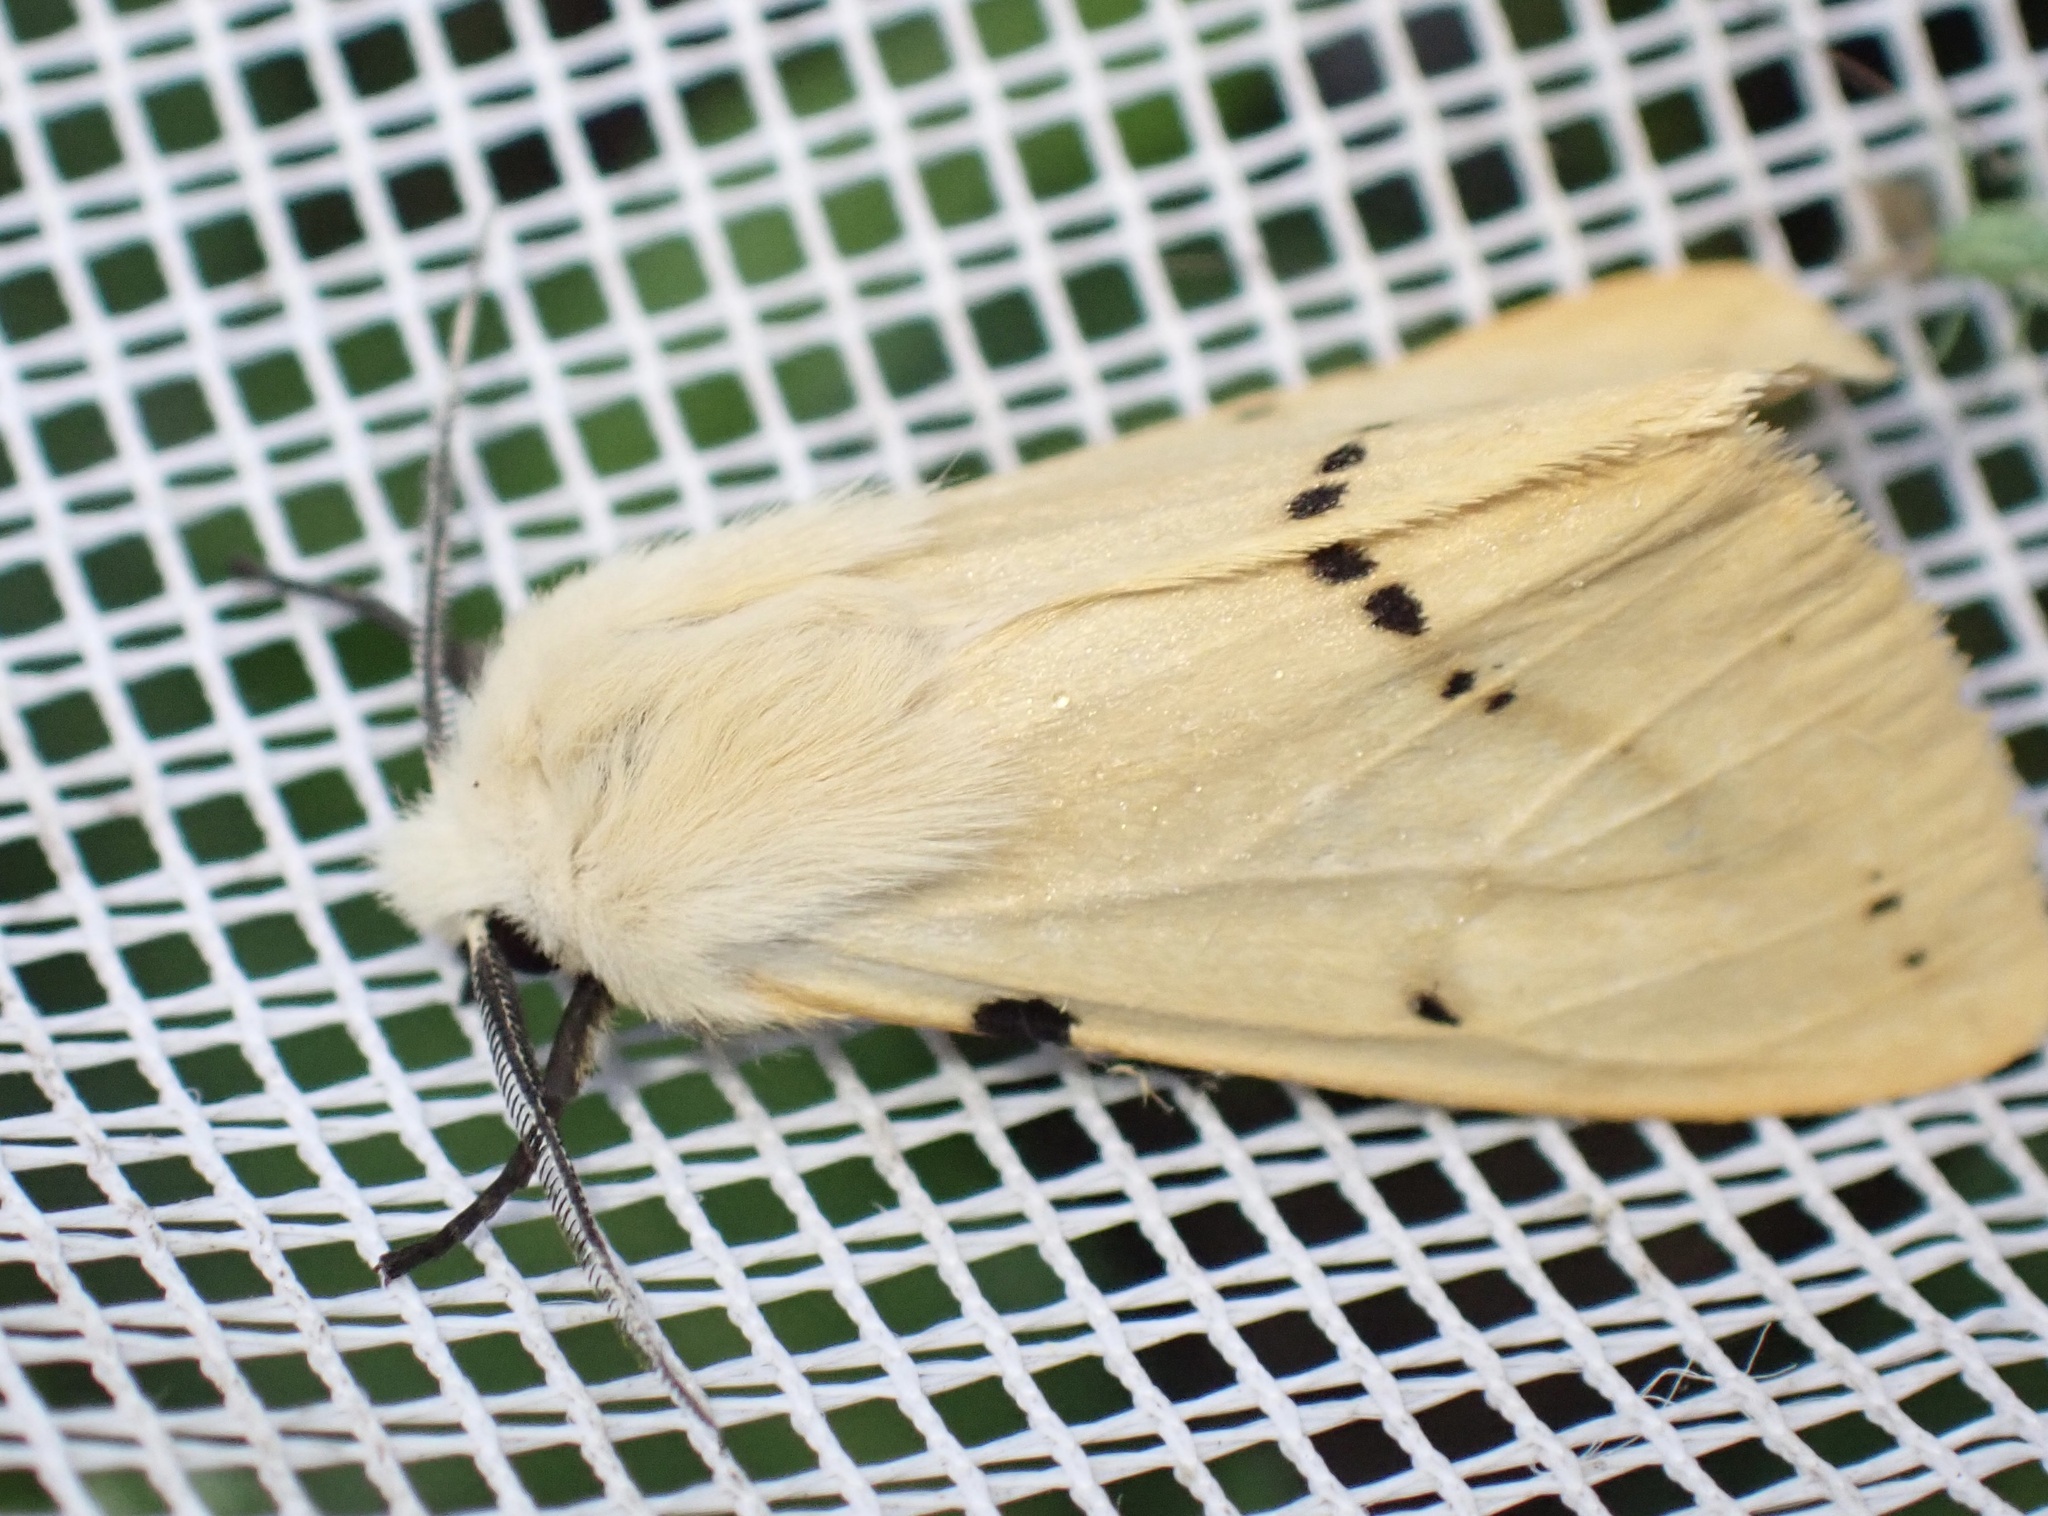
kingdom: Animalia
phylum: Arthropoda
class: Insecta
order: Lepidoptera
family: Erebidae
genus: Spilarctia
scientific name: Spilarctia lutea
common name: Buff ermine
